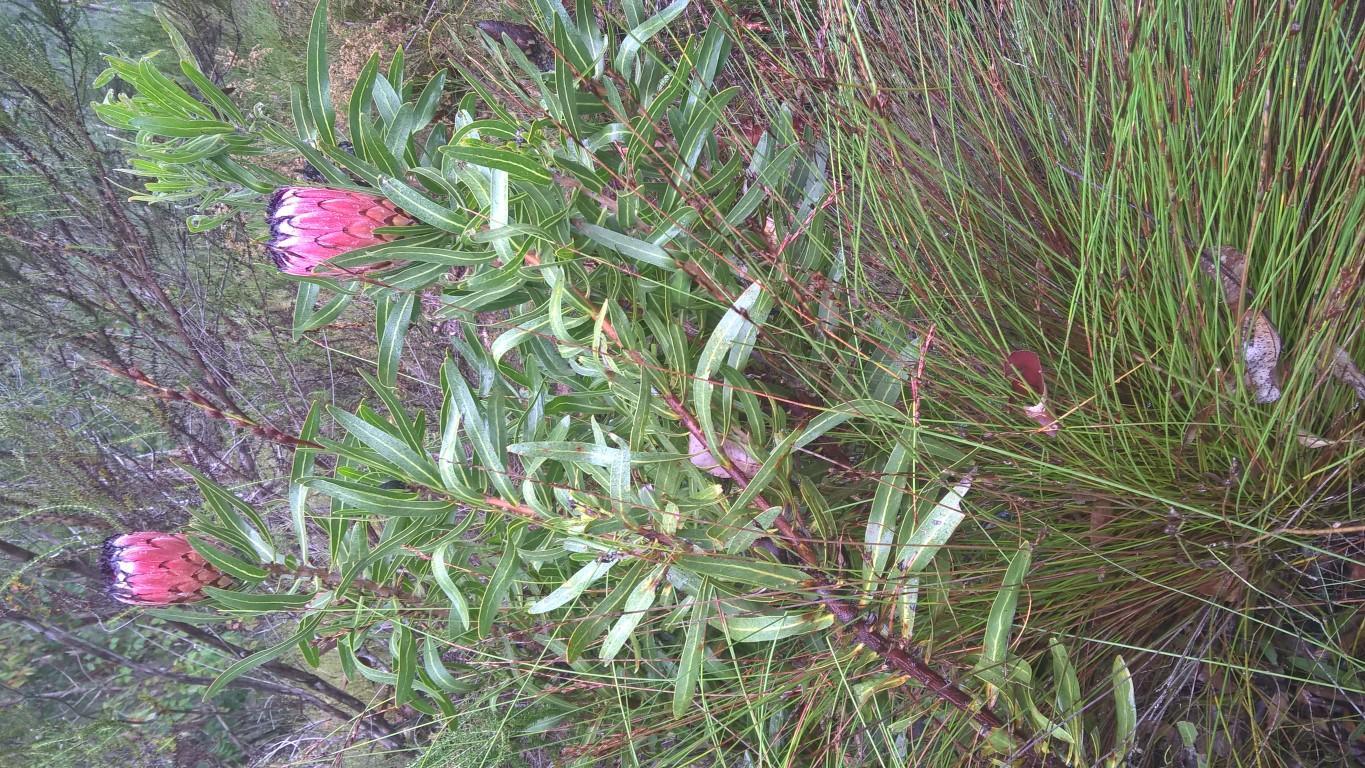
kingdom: Plantae
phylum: Tracheophyta
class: Magnoliopsida
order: Proteales
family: Proteaceae
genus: Protea
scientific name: Protea neriifolia
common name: Blue sugarbush
